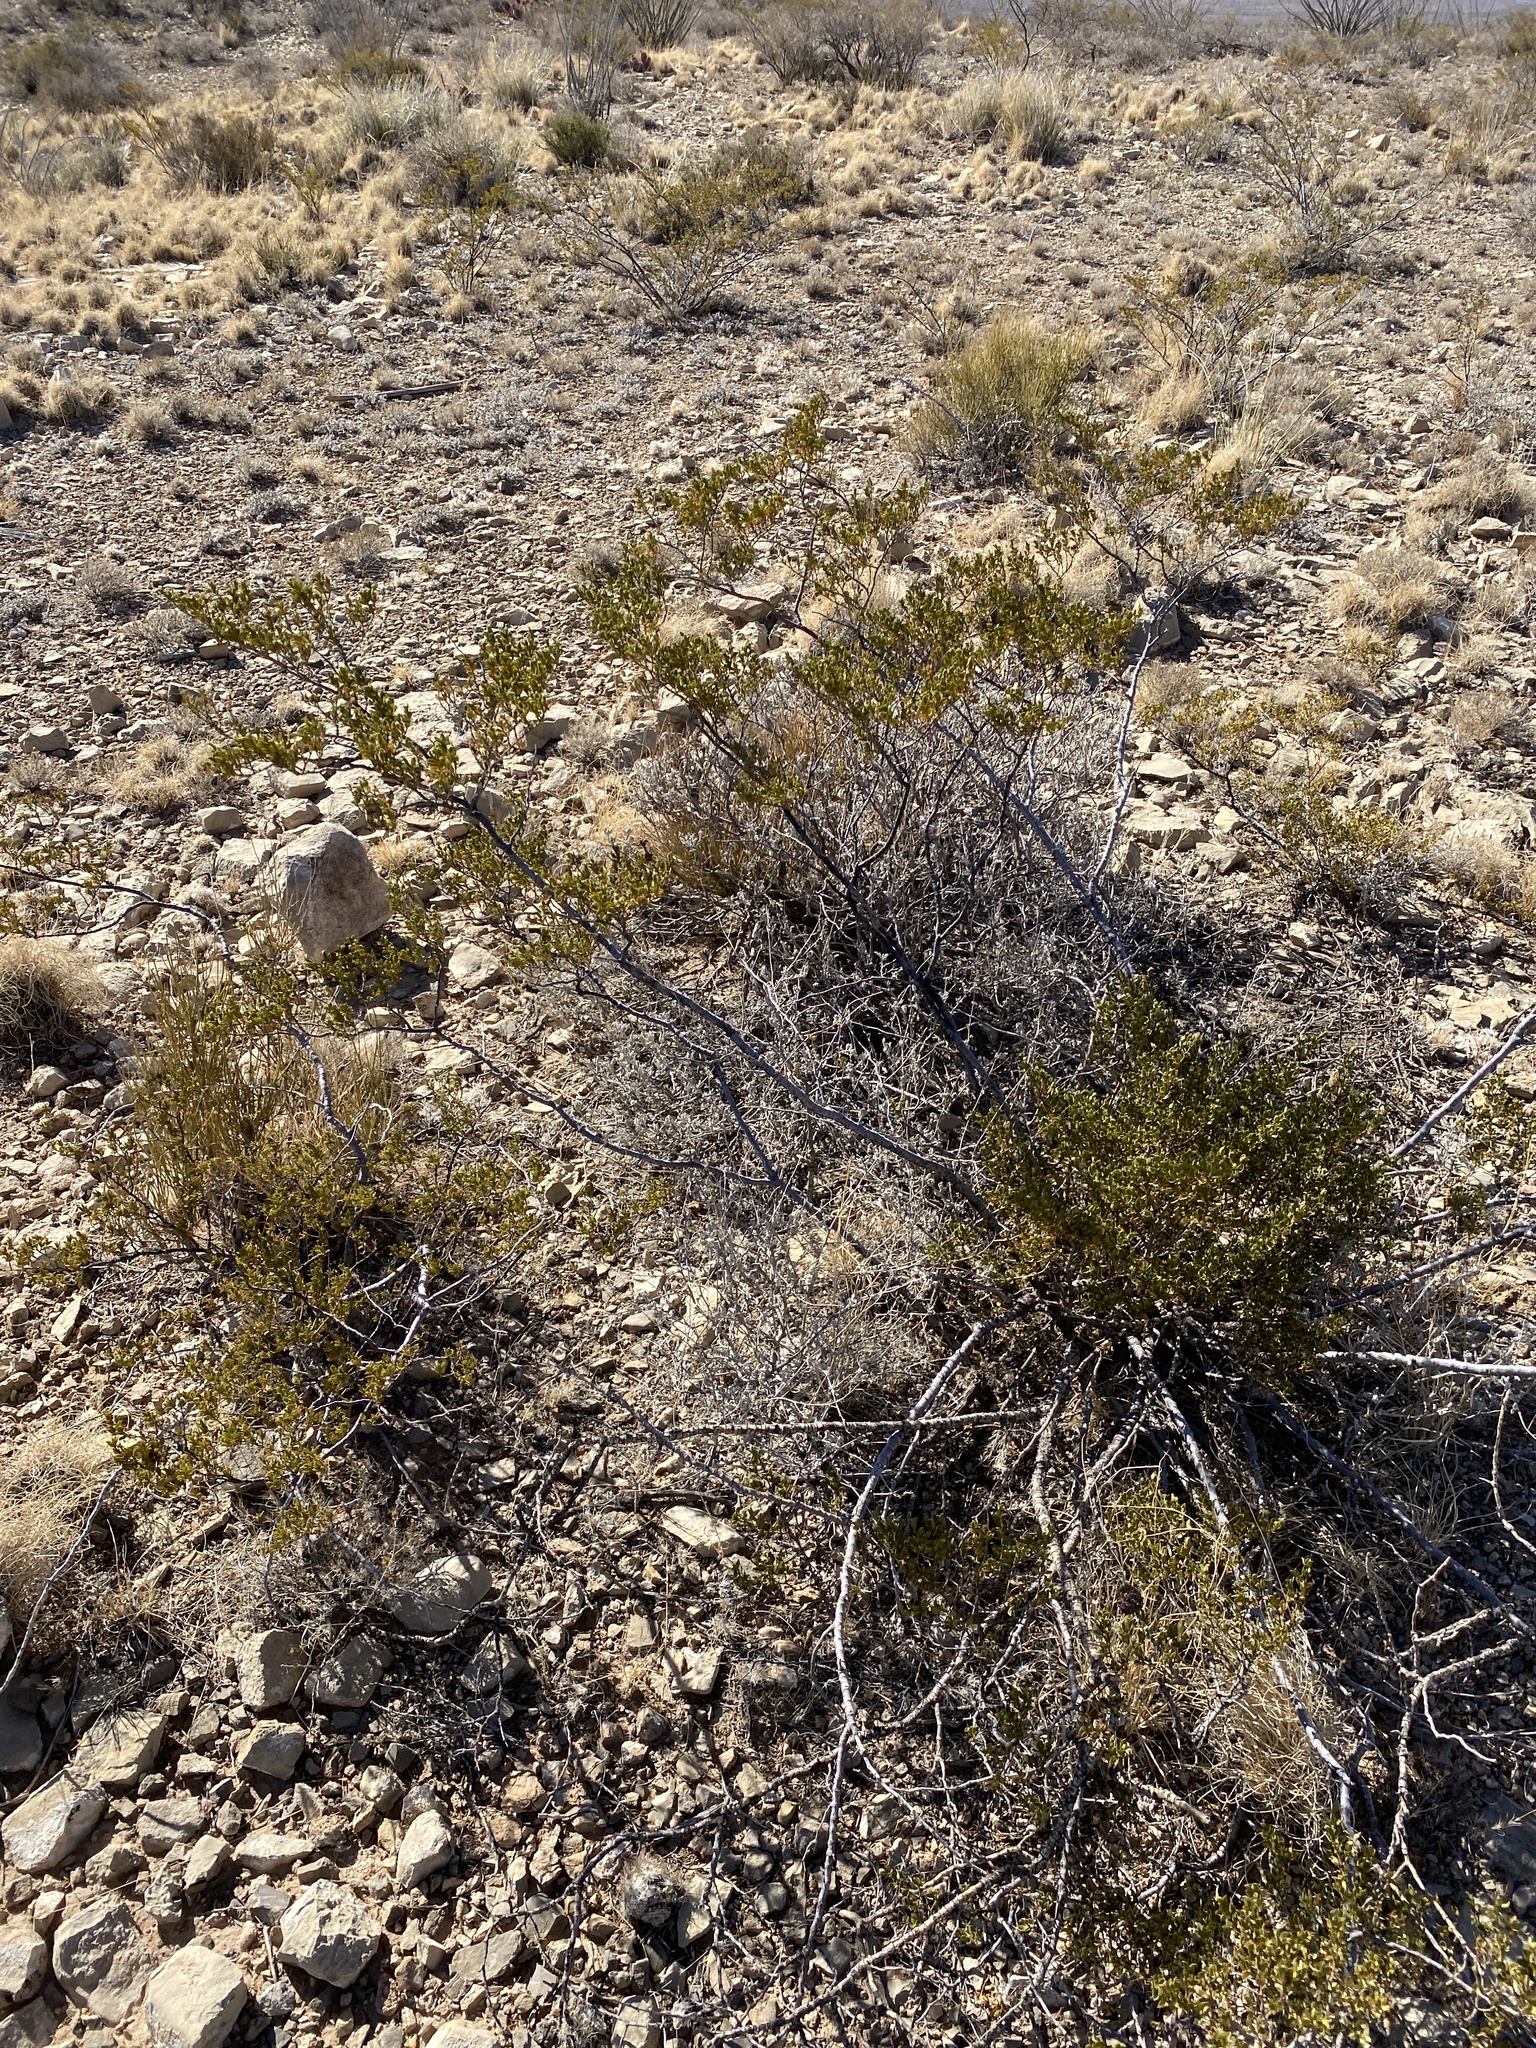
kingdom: Plantae
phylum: Tracheophyta
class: Magnoliopsida
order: Zygophyllales
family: Zygophyllaceae
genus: Larrea
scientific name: Larrea tridentata
